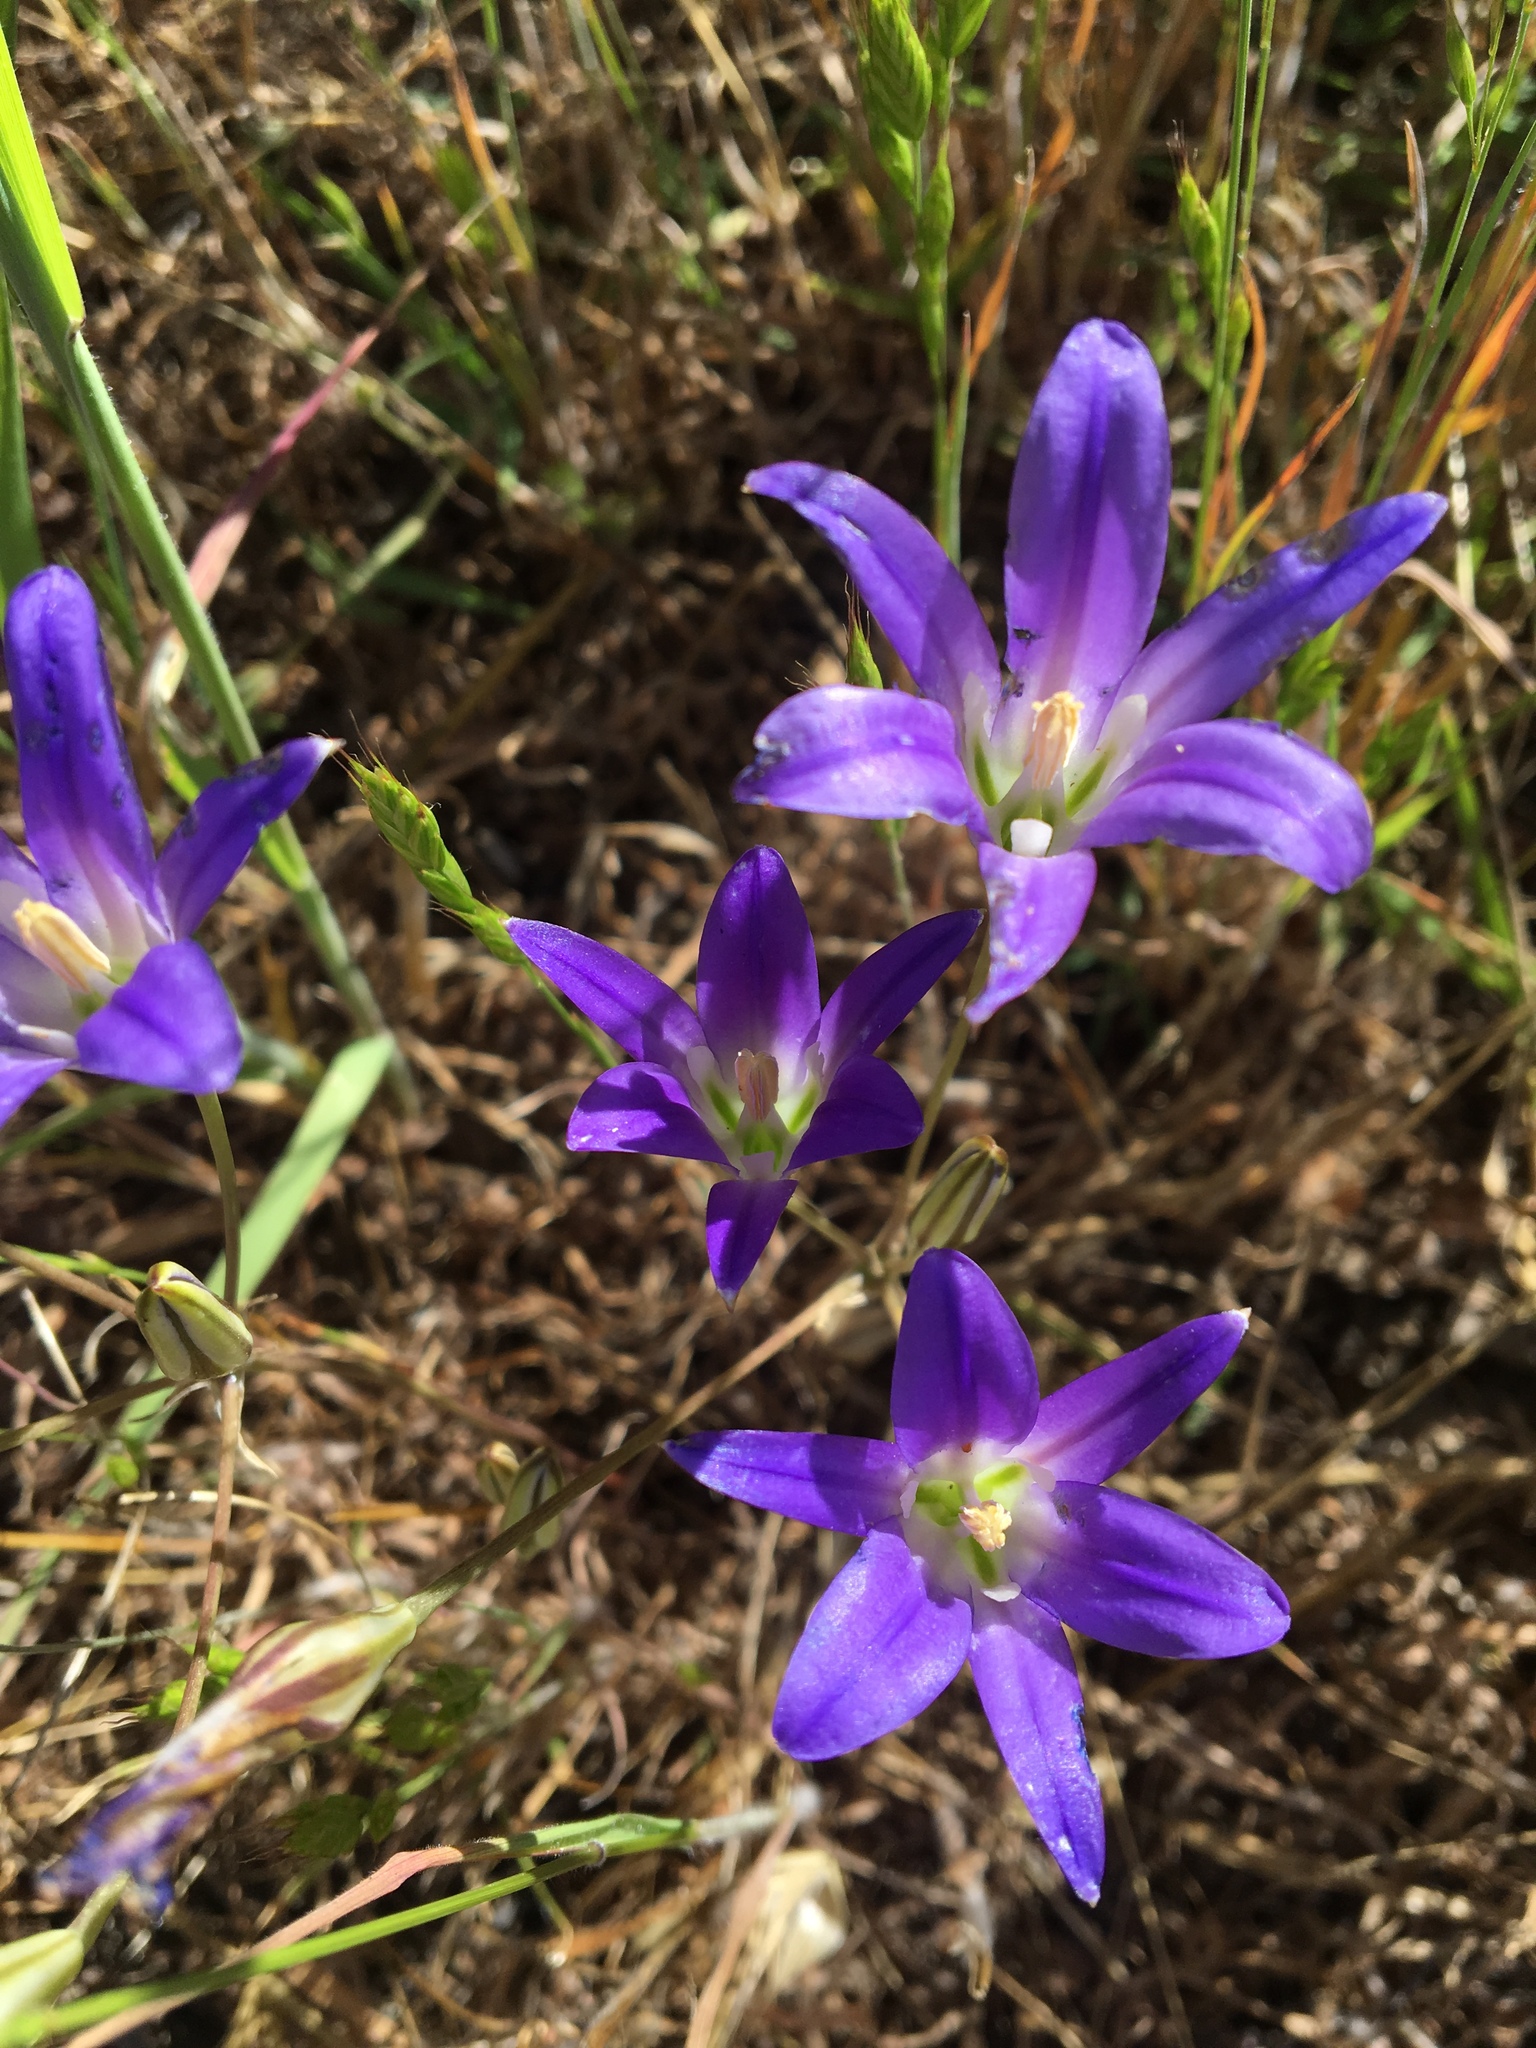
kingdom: Plantae
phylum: Tracheophyta
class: Liliopsida
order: Asparagales
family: Asparagaceae
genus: Brodiaea
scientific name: Brodiaea elegans
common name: Elegant cluster-lily
